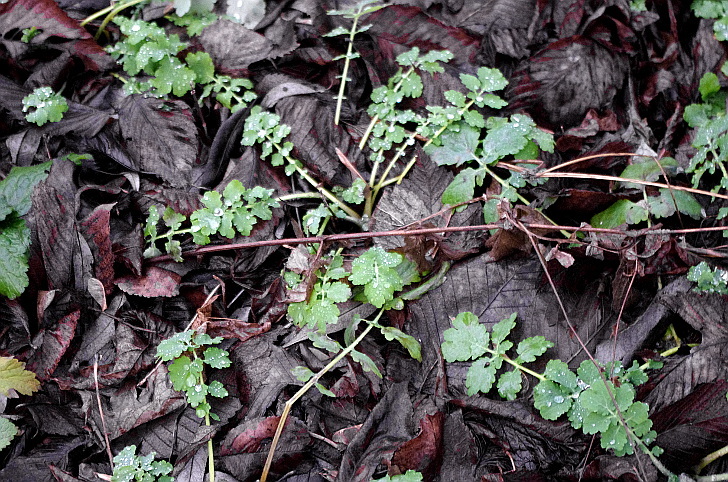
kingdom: Plantae
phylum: Tracheophyta
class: Magnoliopsida
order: Ranunculales
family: Papaveraceae
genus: Chelidonium
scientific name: Chelidonium majus
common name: Greater celandine
